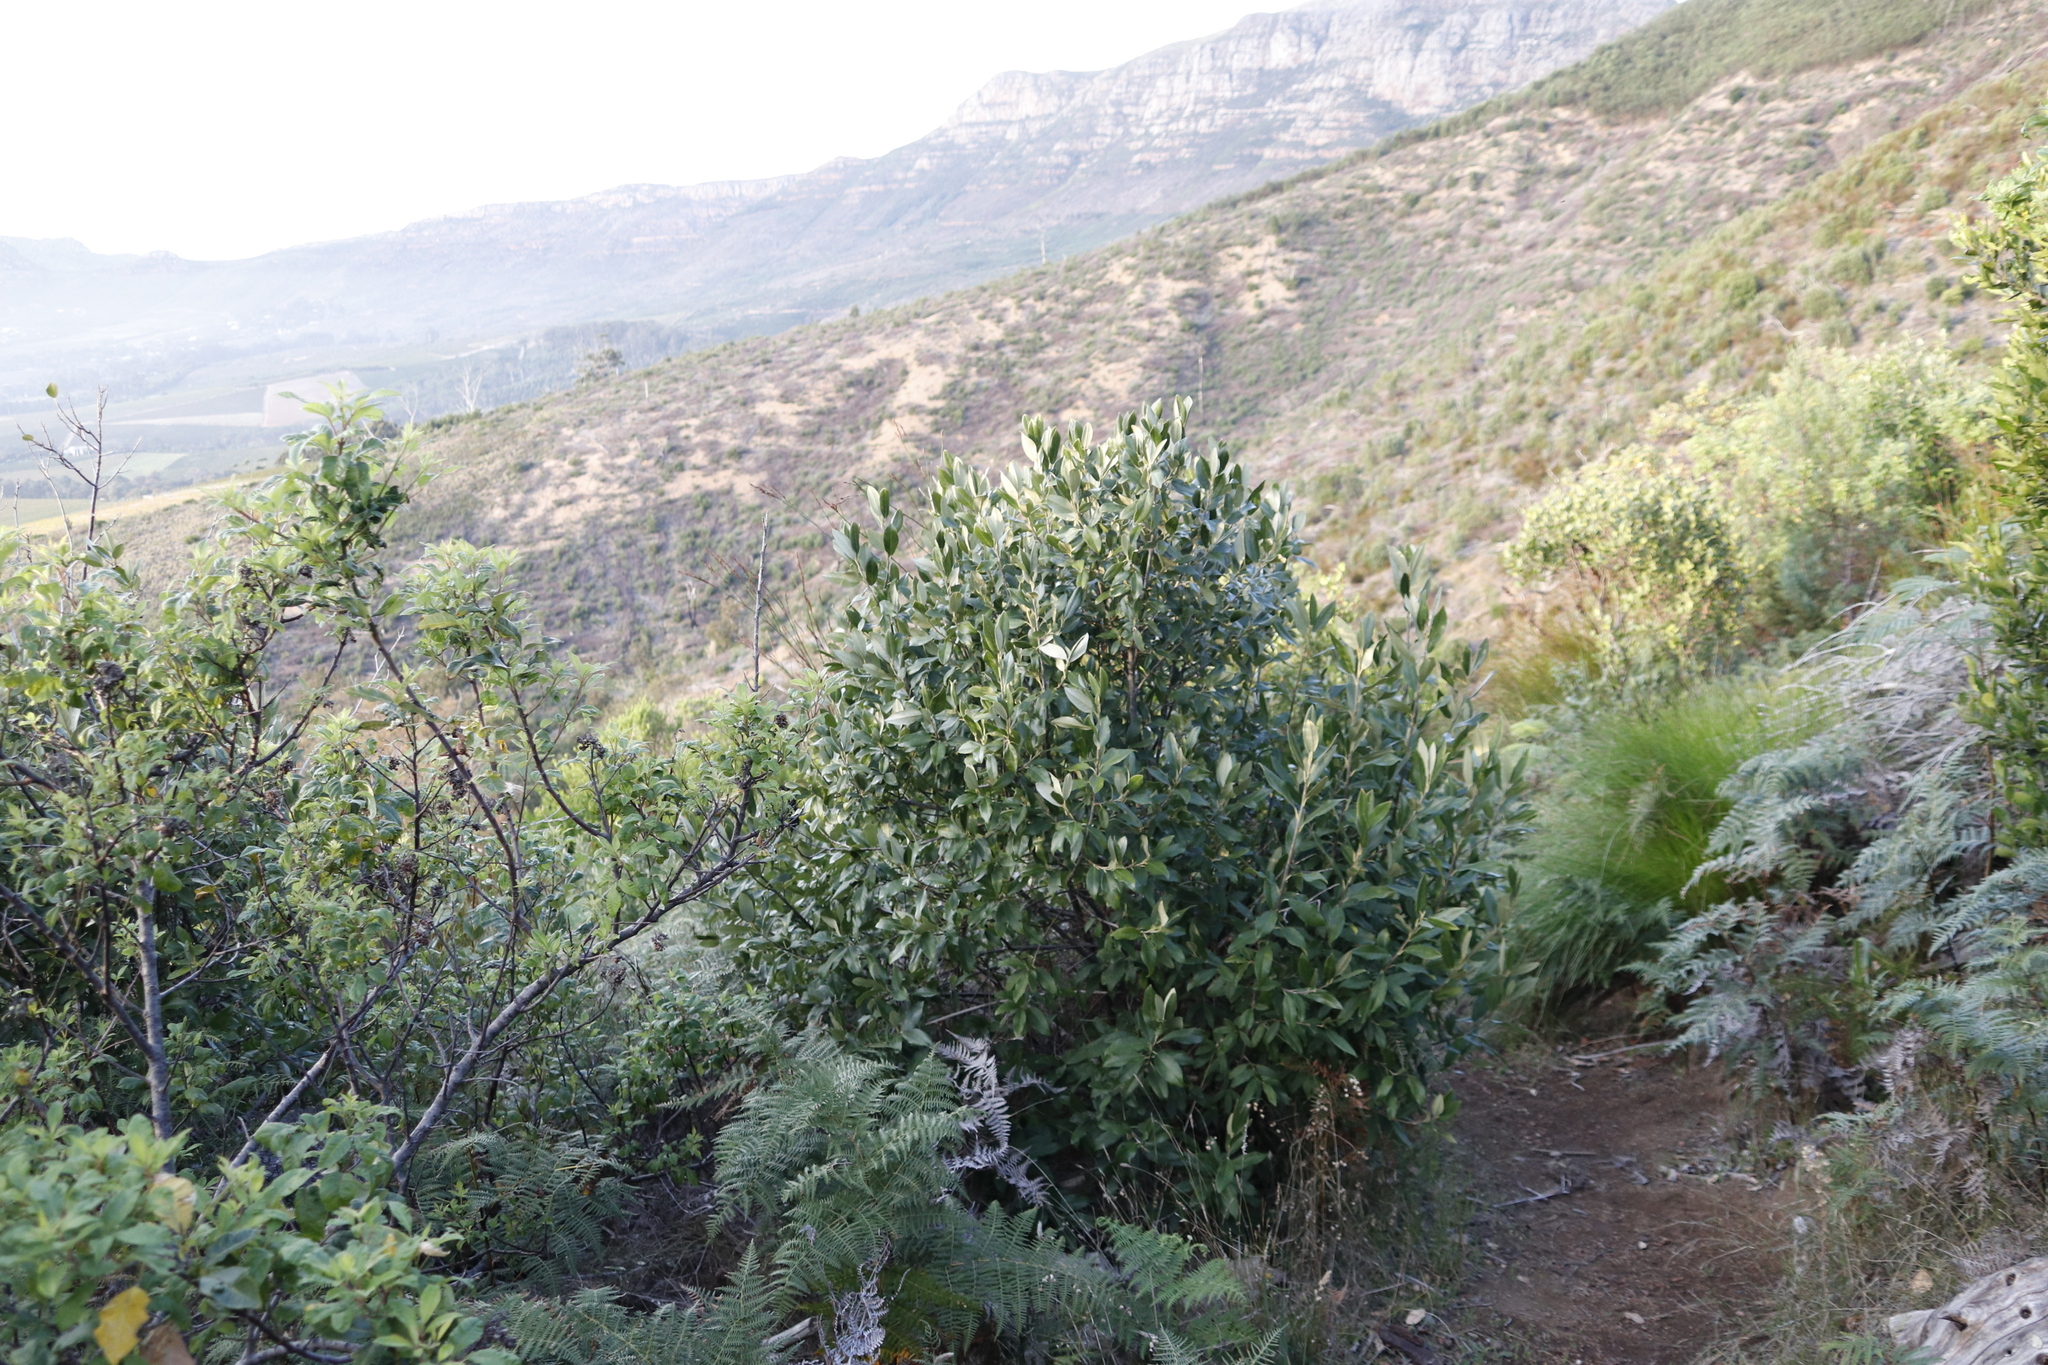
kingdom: Plantae
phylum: Tracheophyta
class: Magnoliopsida
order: Malpighiales
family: Achariaceae
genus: Kiggelaria
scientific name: Kiggelaria africana
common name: Wild peach
